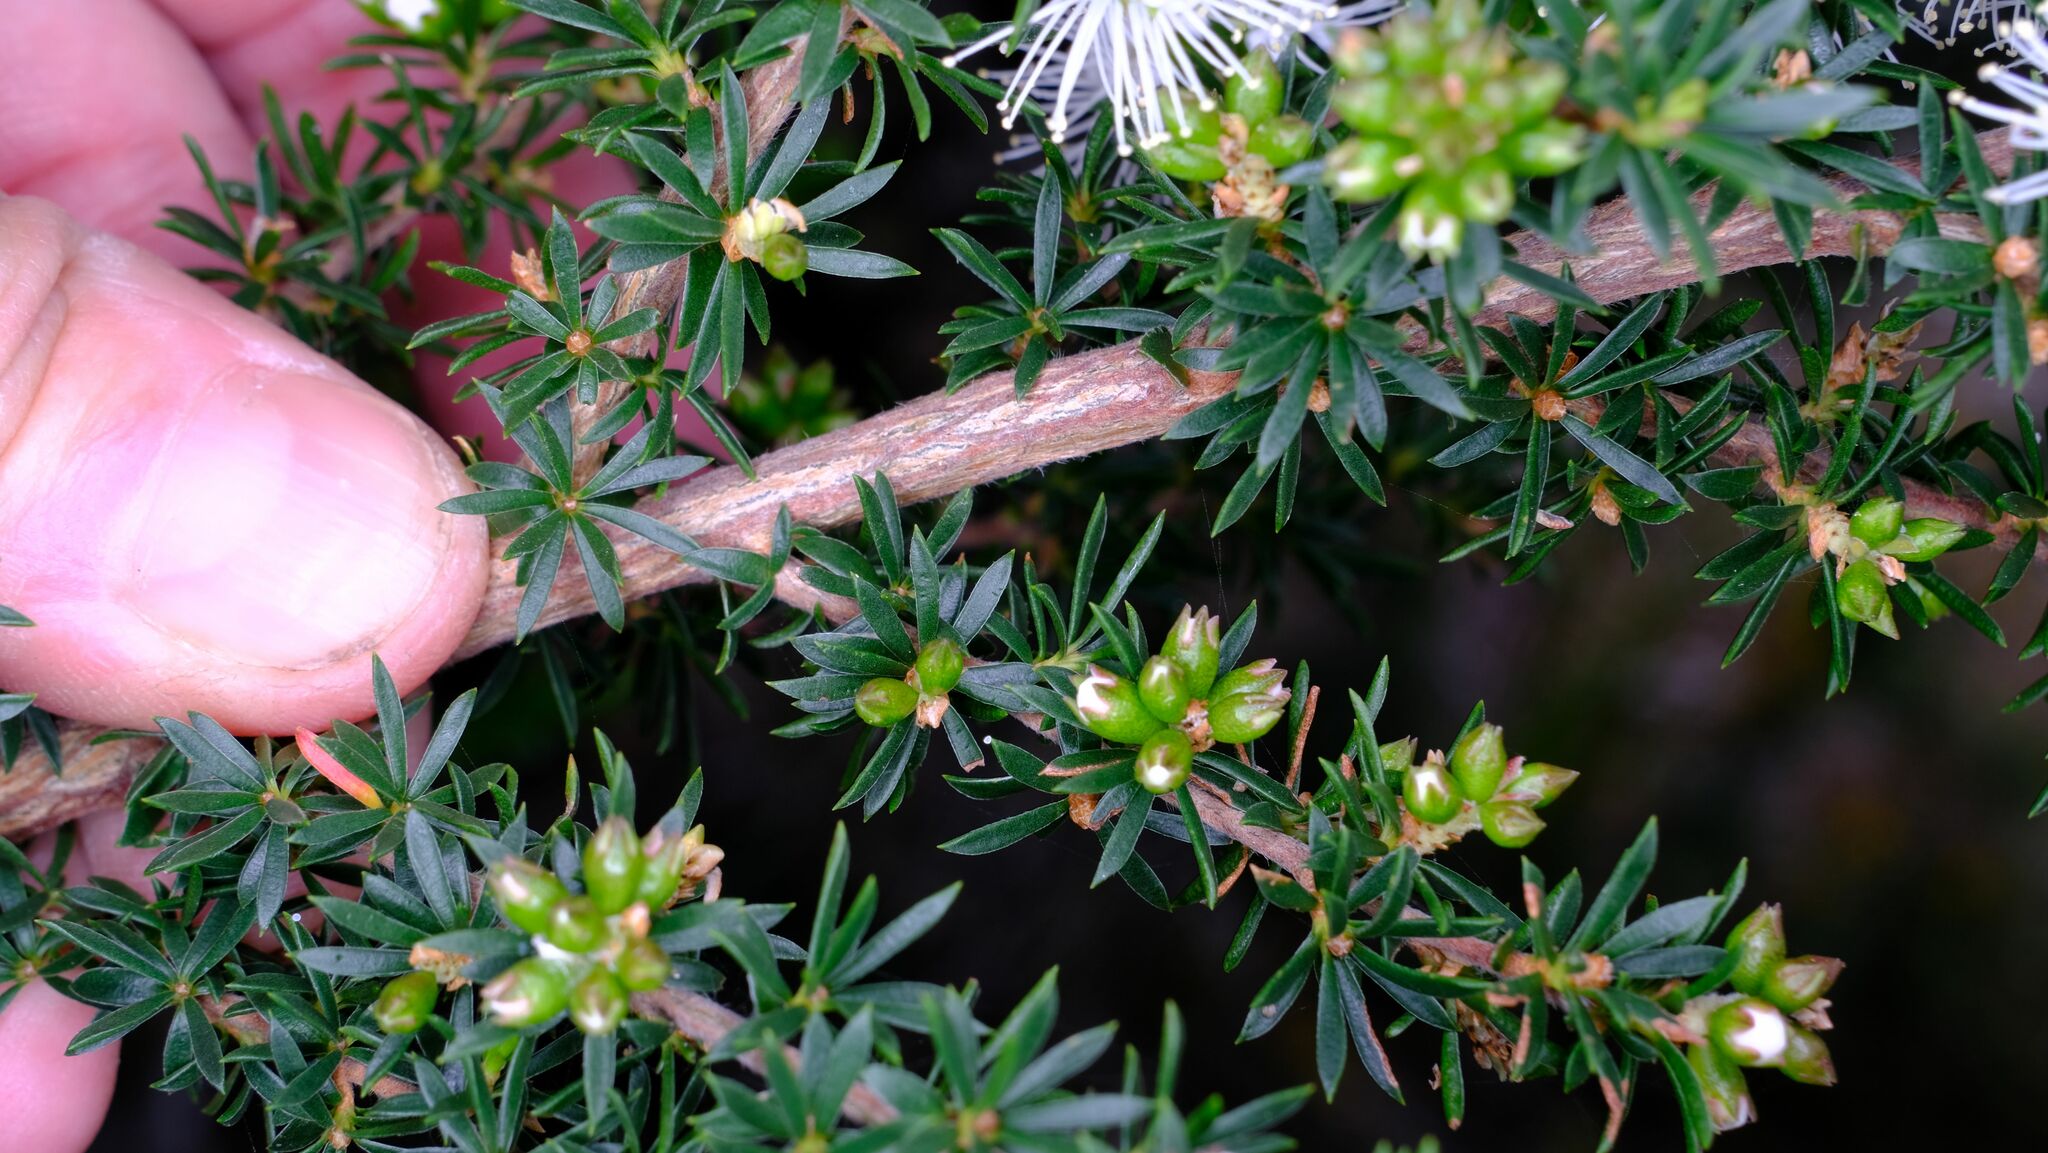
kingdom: Plantae
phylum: Tracheophyta
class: Magnoliopsida
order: Myrtales
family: Myrtaceae
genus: Kunzea
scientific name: Kunzea ambigua
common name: Tickbush
